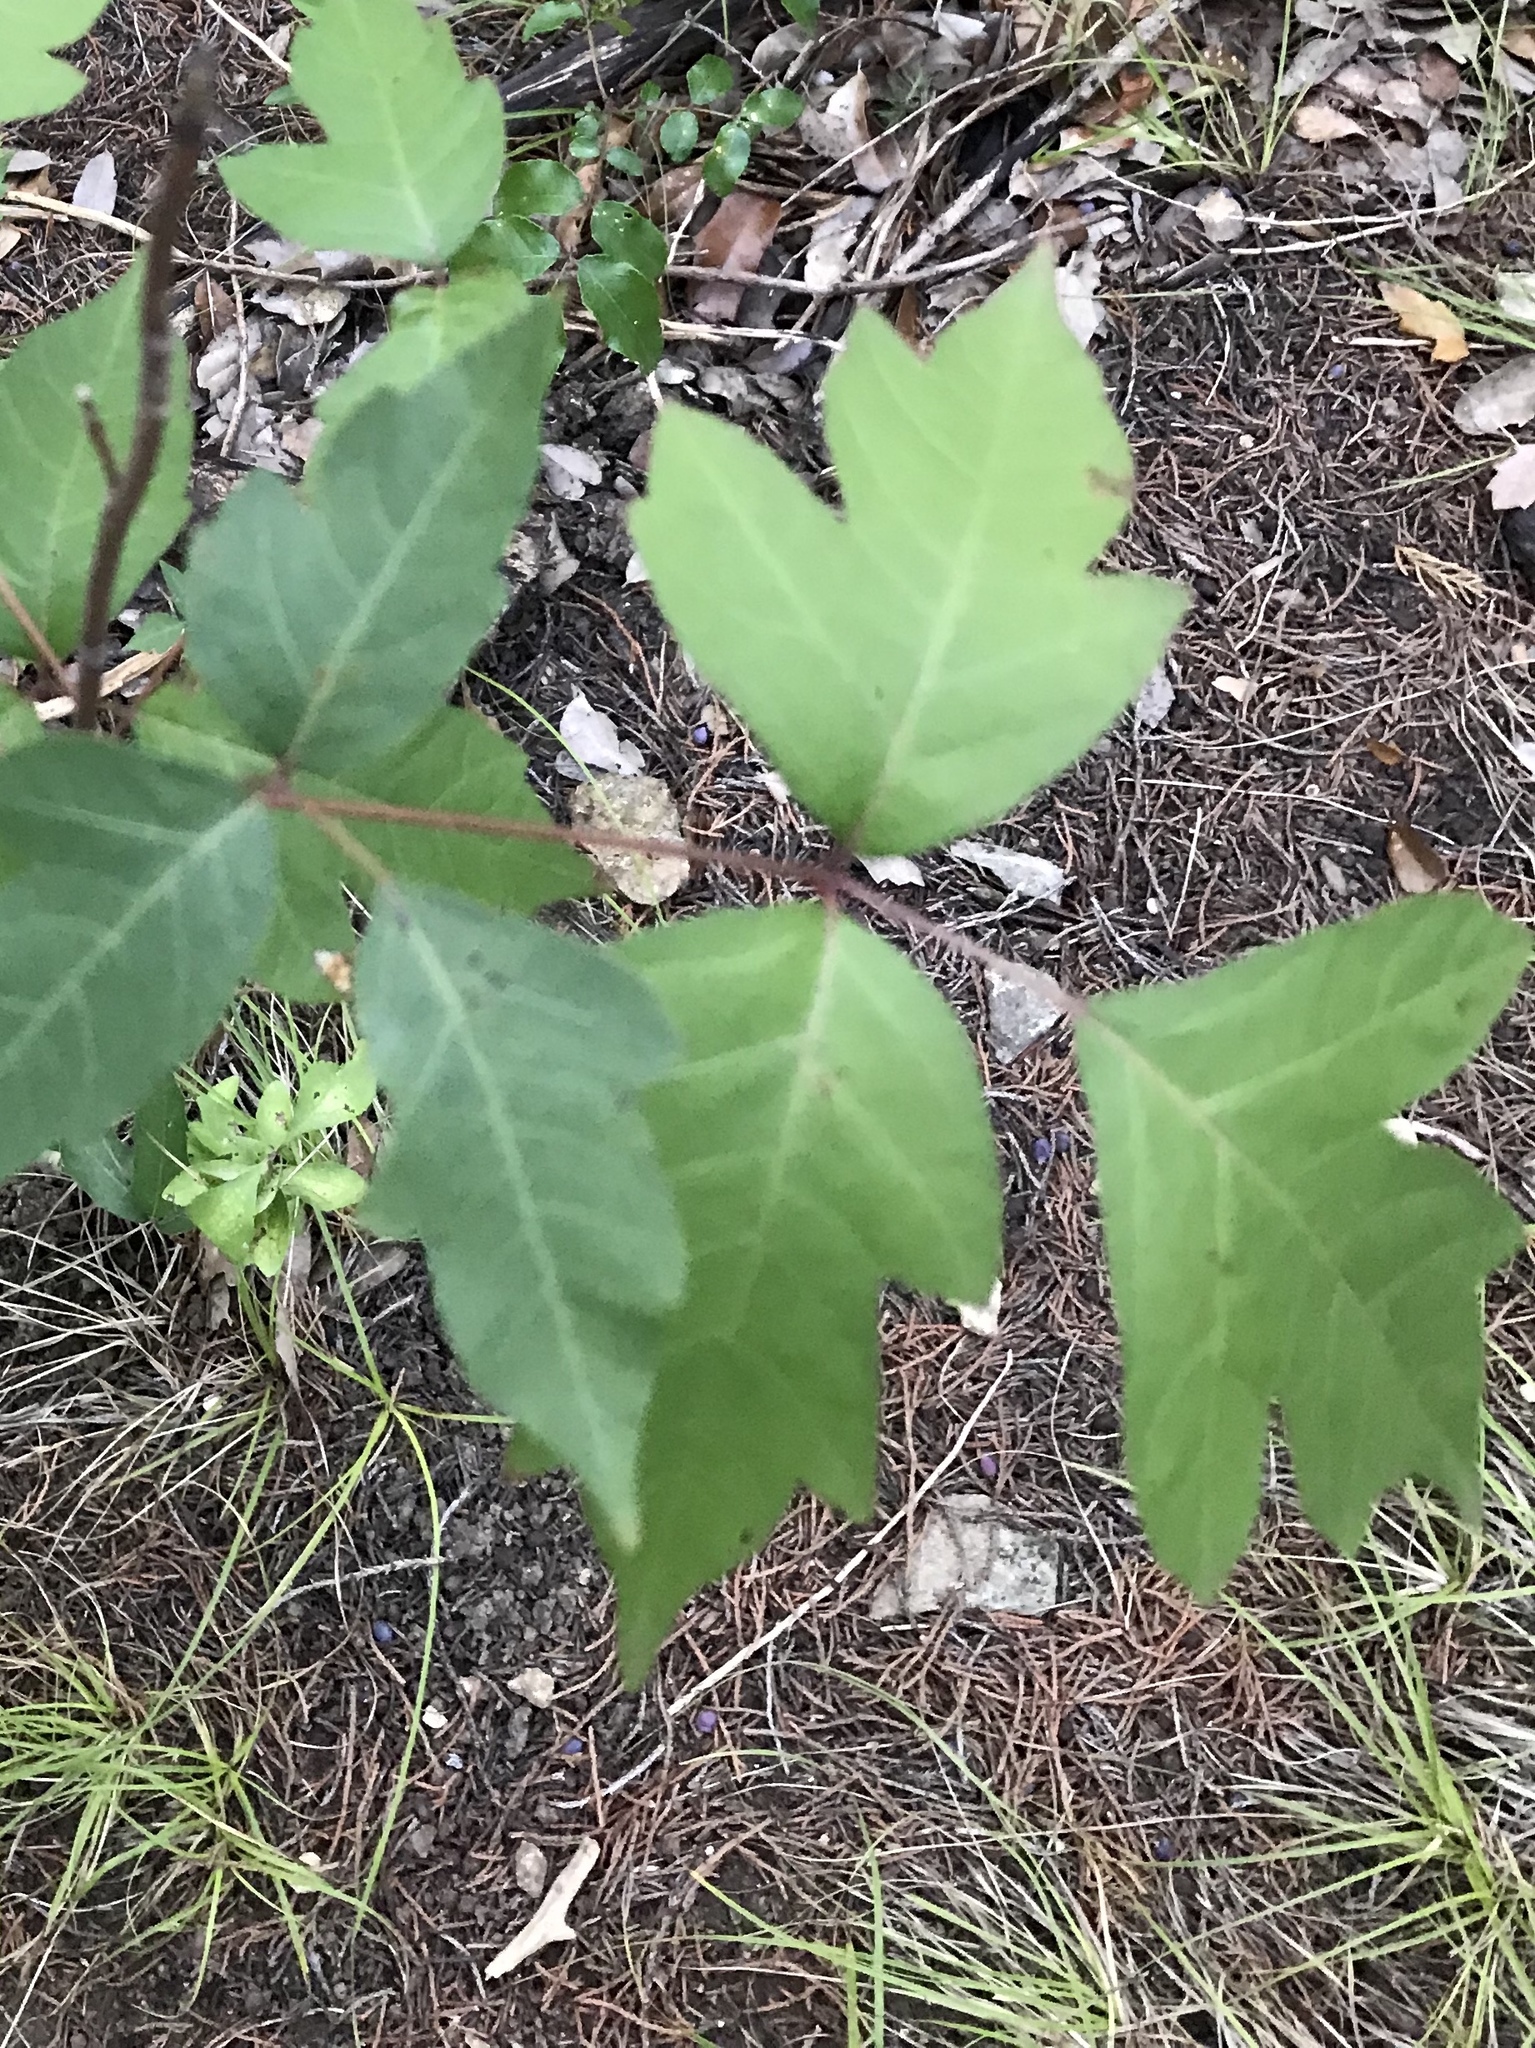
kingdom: Plantae
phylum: Tracheophyta
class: Magnoliopsida
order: Sapindales
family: Anacardiaceae
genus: Toxicodendron
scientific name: Toxicodendron radicans
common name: Poison ivy
